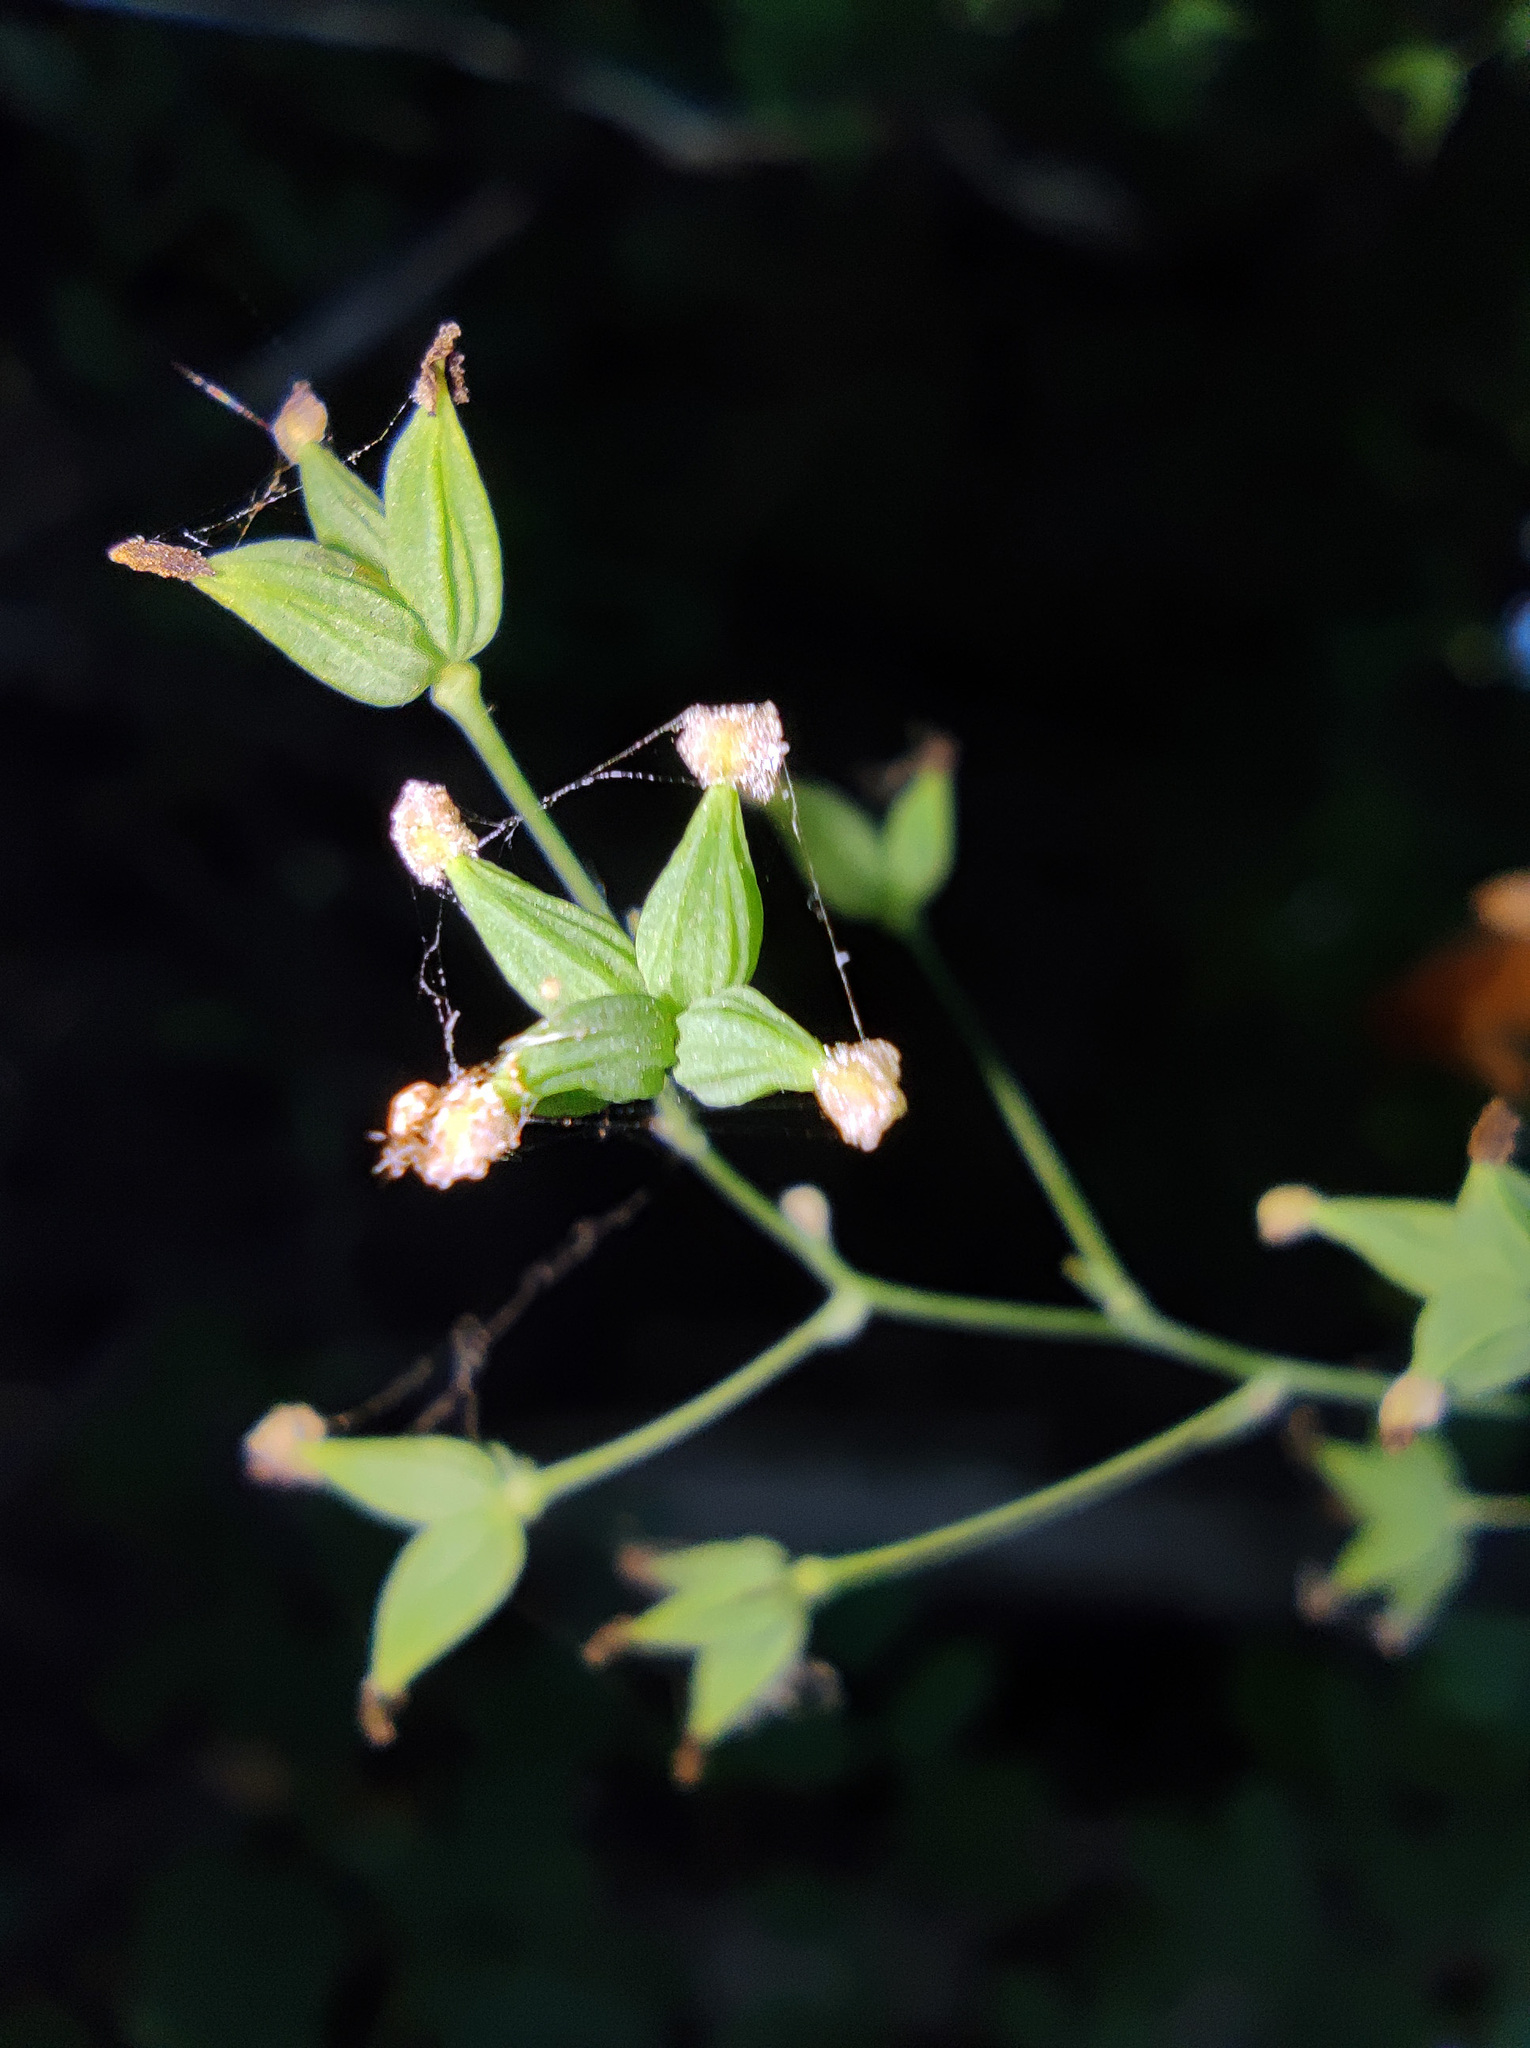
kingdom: Plantae
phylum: Tracheophyta
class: Magnoliopsida
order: Ranunculales
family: Ranunculaceae
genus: Thalictrum
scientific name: Thalictrum minus
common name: Lesser meadow-rue
